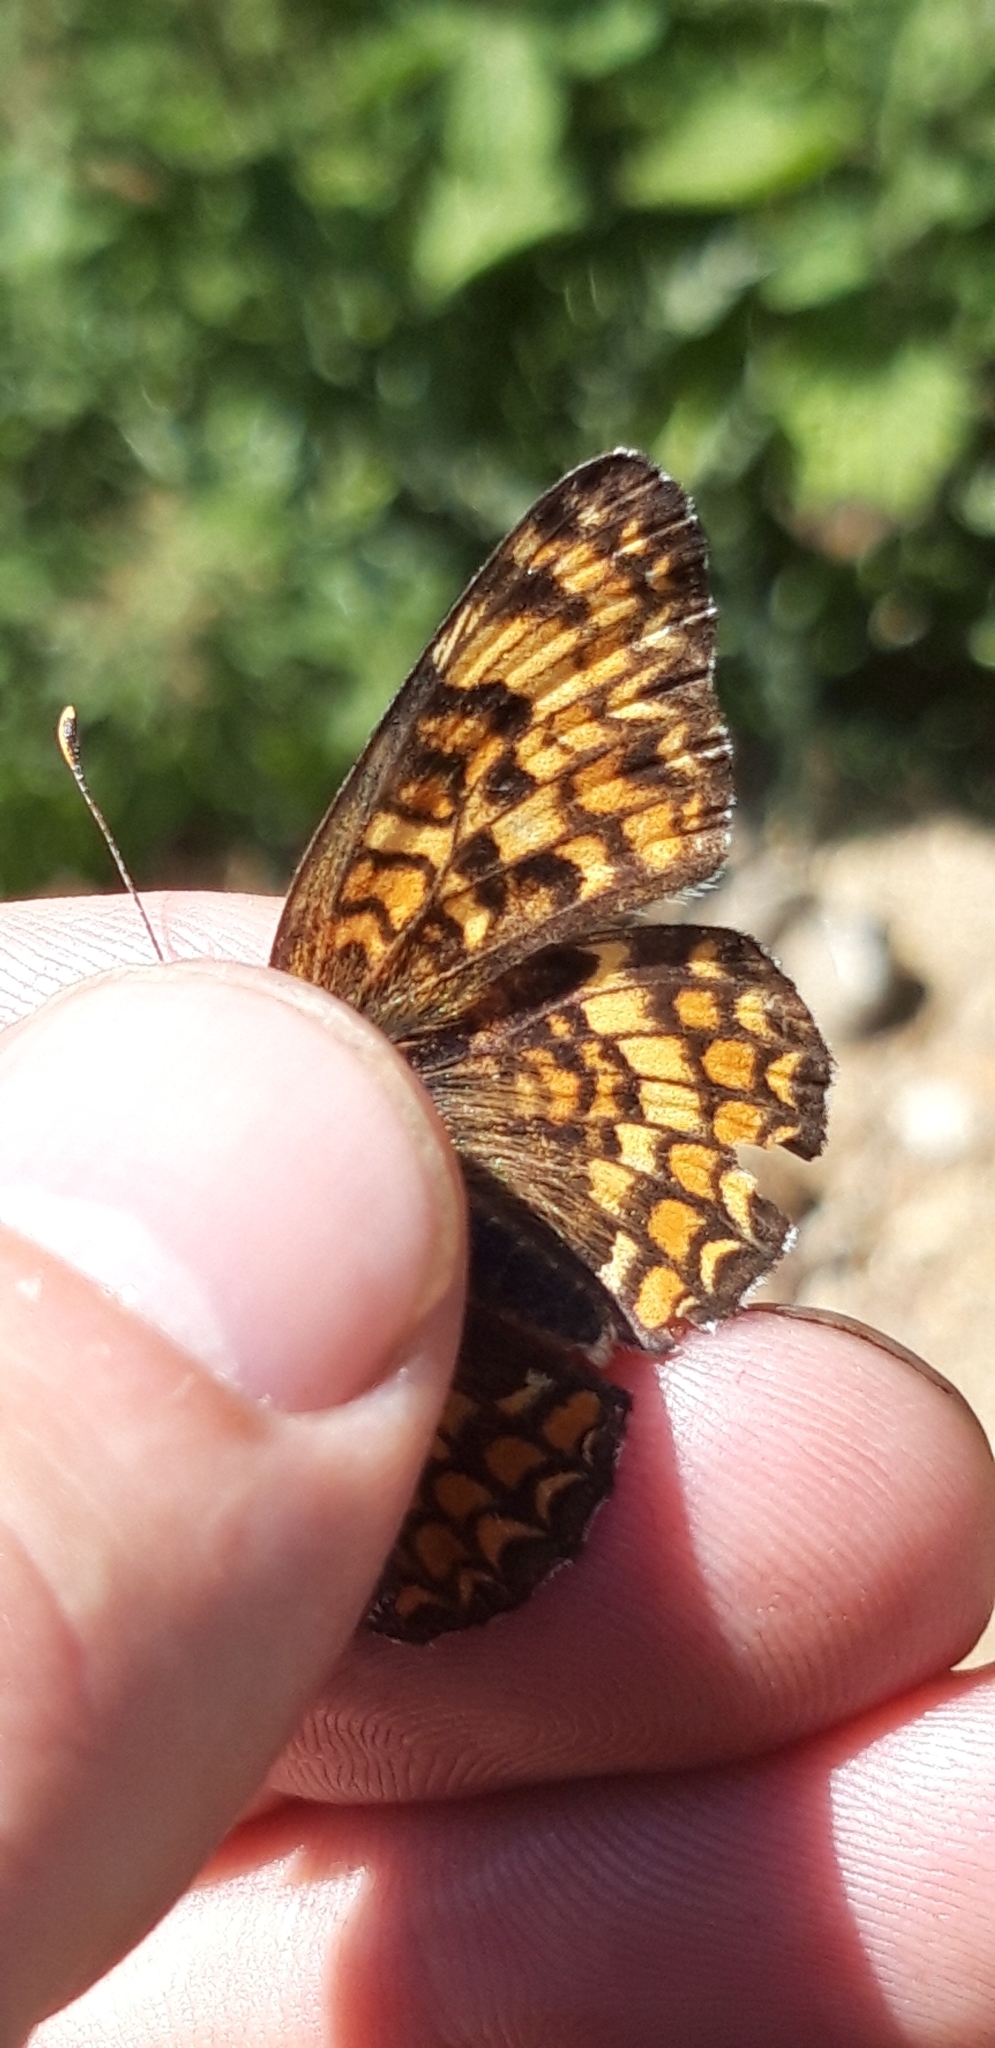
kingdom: Animalia
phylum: Arthropoda
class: Insecta
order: Lepidoptera
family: Nymphalidae
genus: Melitaea
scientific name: Melitaea phoebe
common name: Knapweed fritillary
